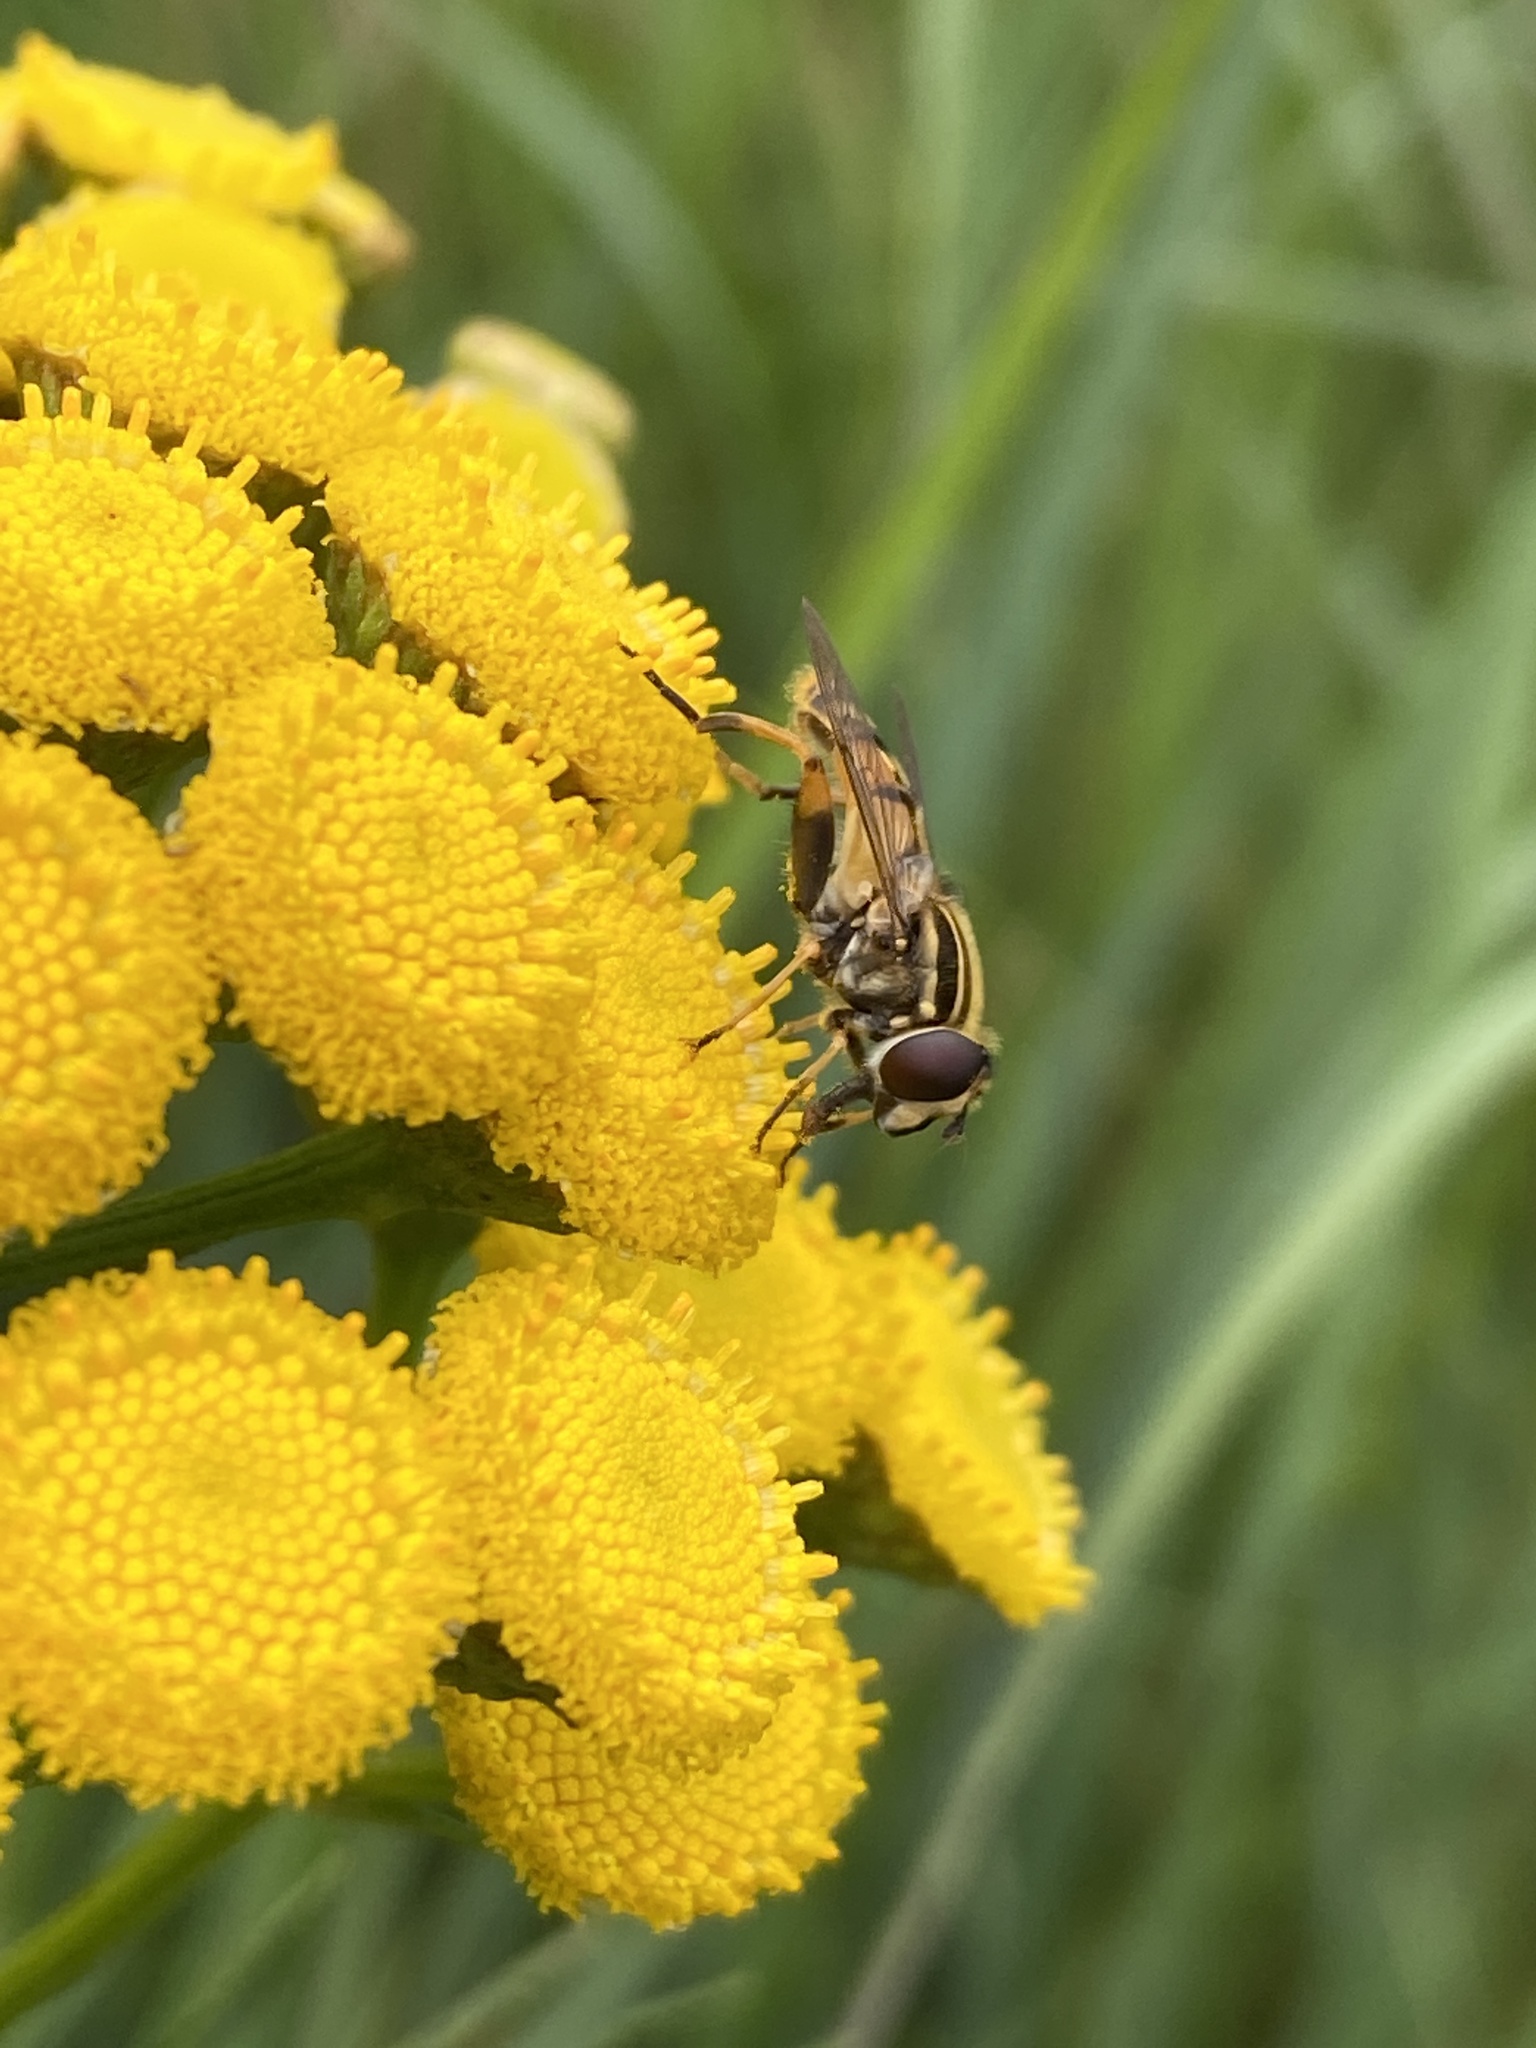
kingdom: Animalia
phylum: Arthropoda
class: Insecta
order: Diptera
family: Syrphidae
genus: Helophilus
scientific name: Helophilus pendulus
